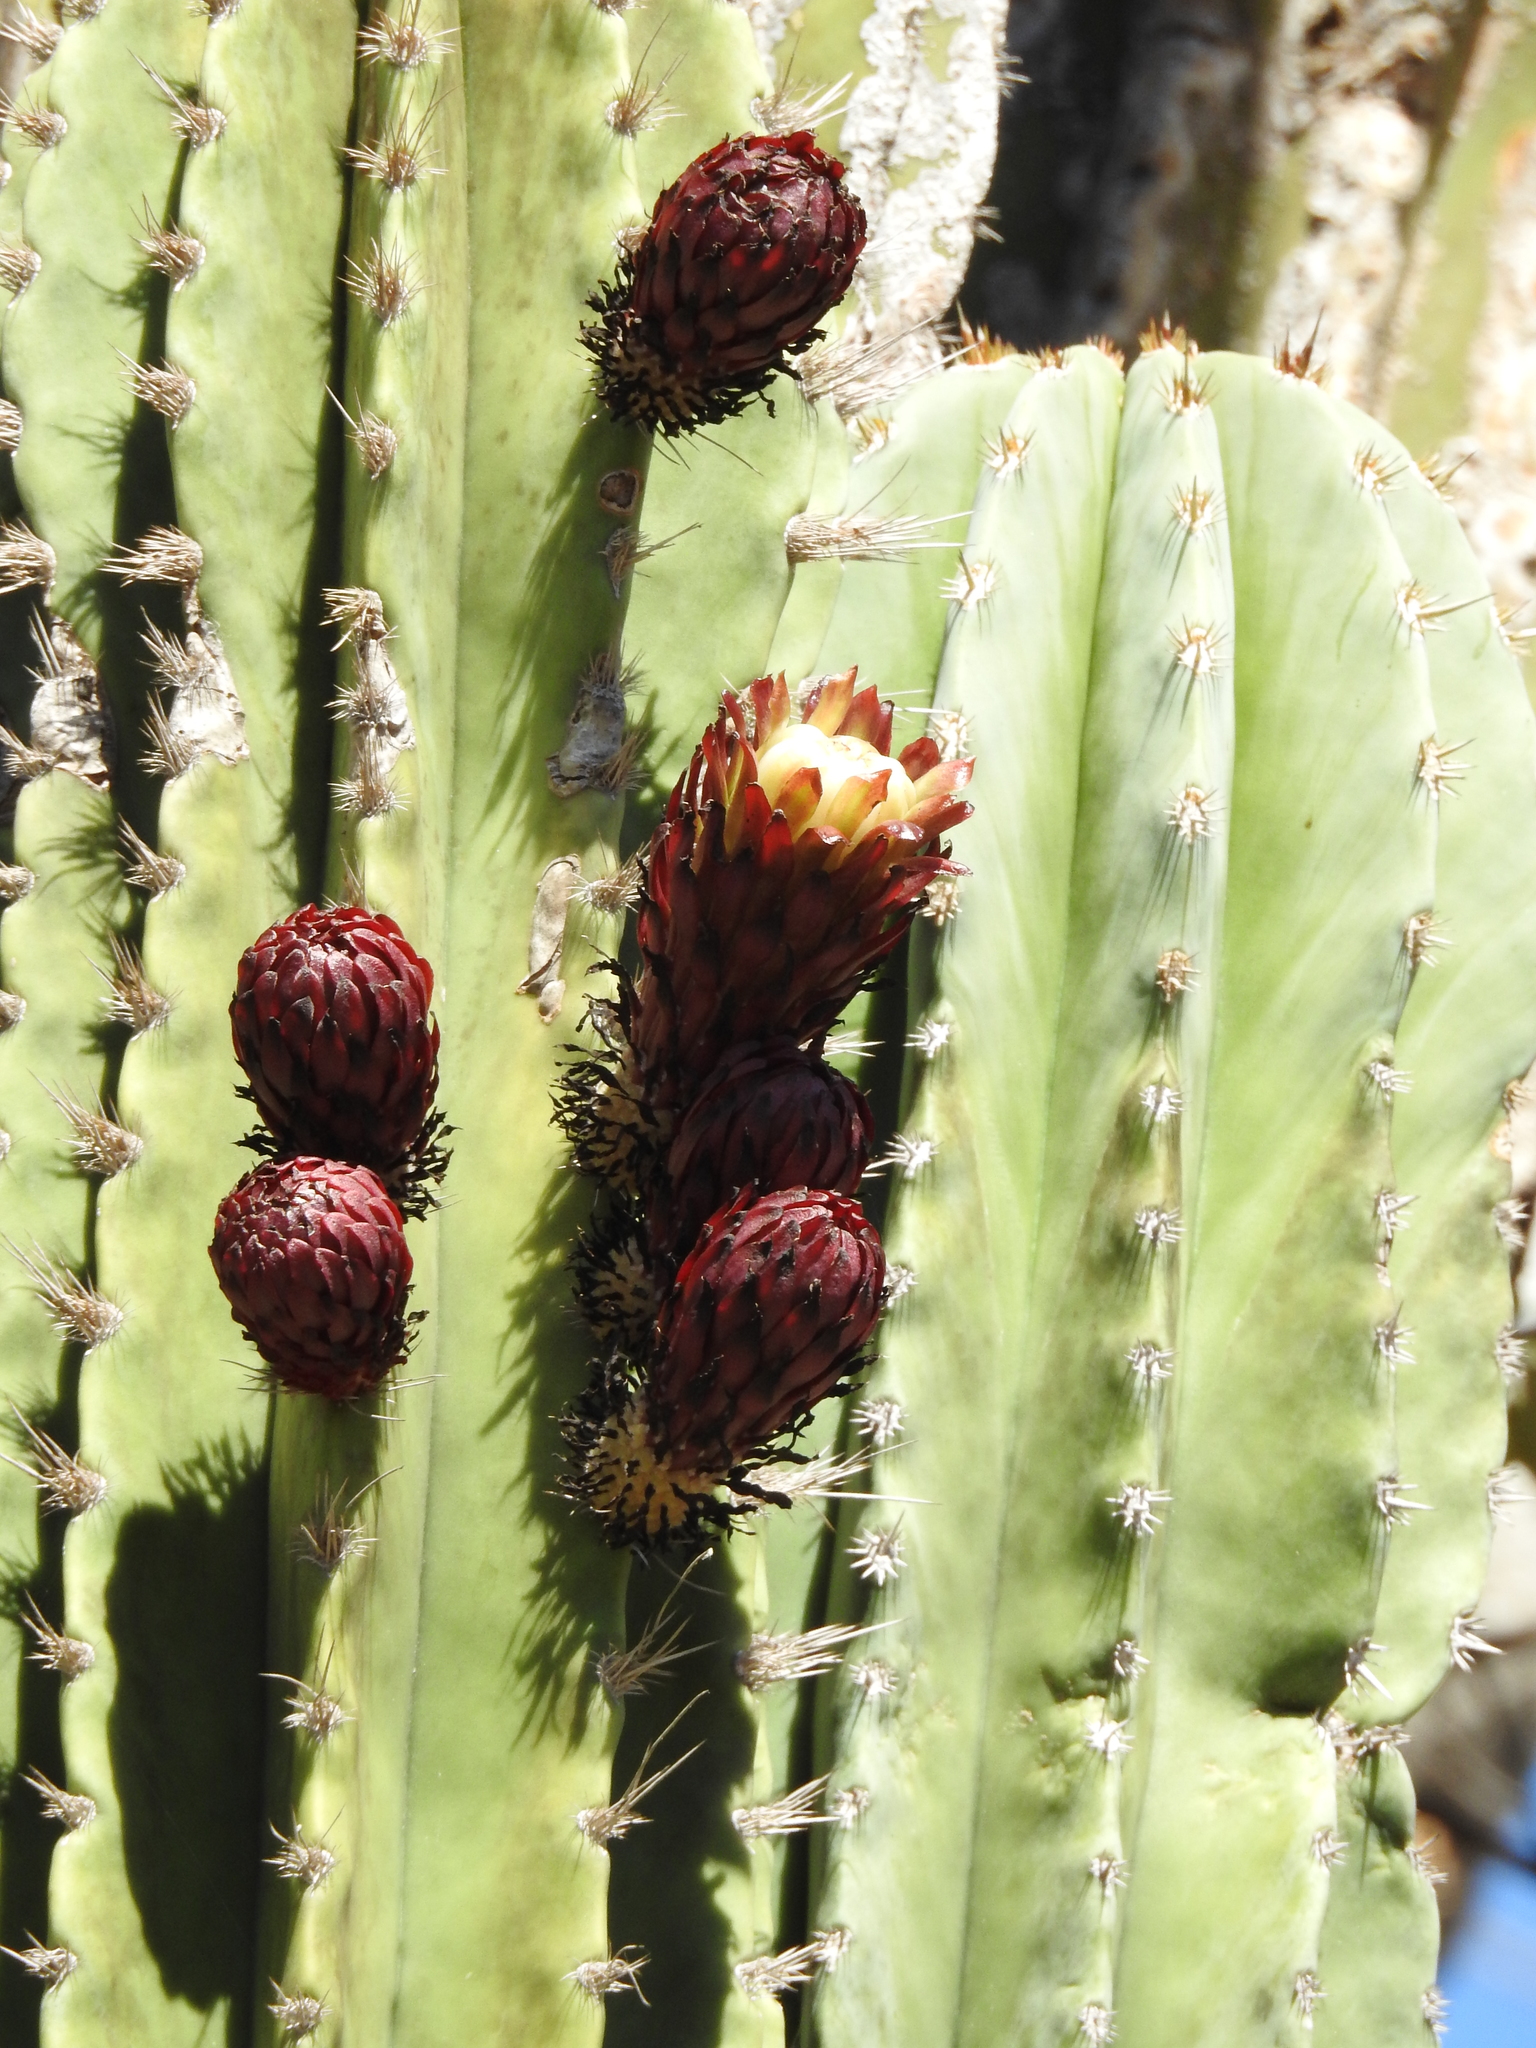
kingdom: Plantae
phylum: Tracheophyta
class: Magnoliopsida
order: Caryophyllales
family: Cactaceae
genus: Pachycereus
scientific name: Pachycereus pecten-aboriginum
